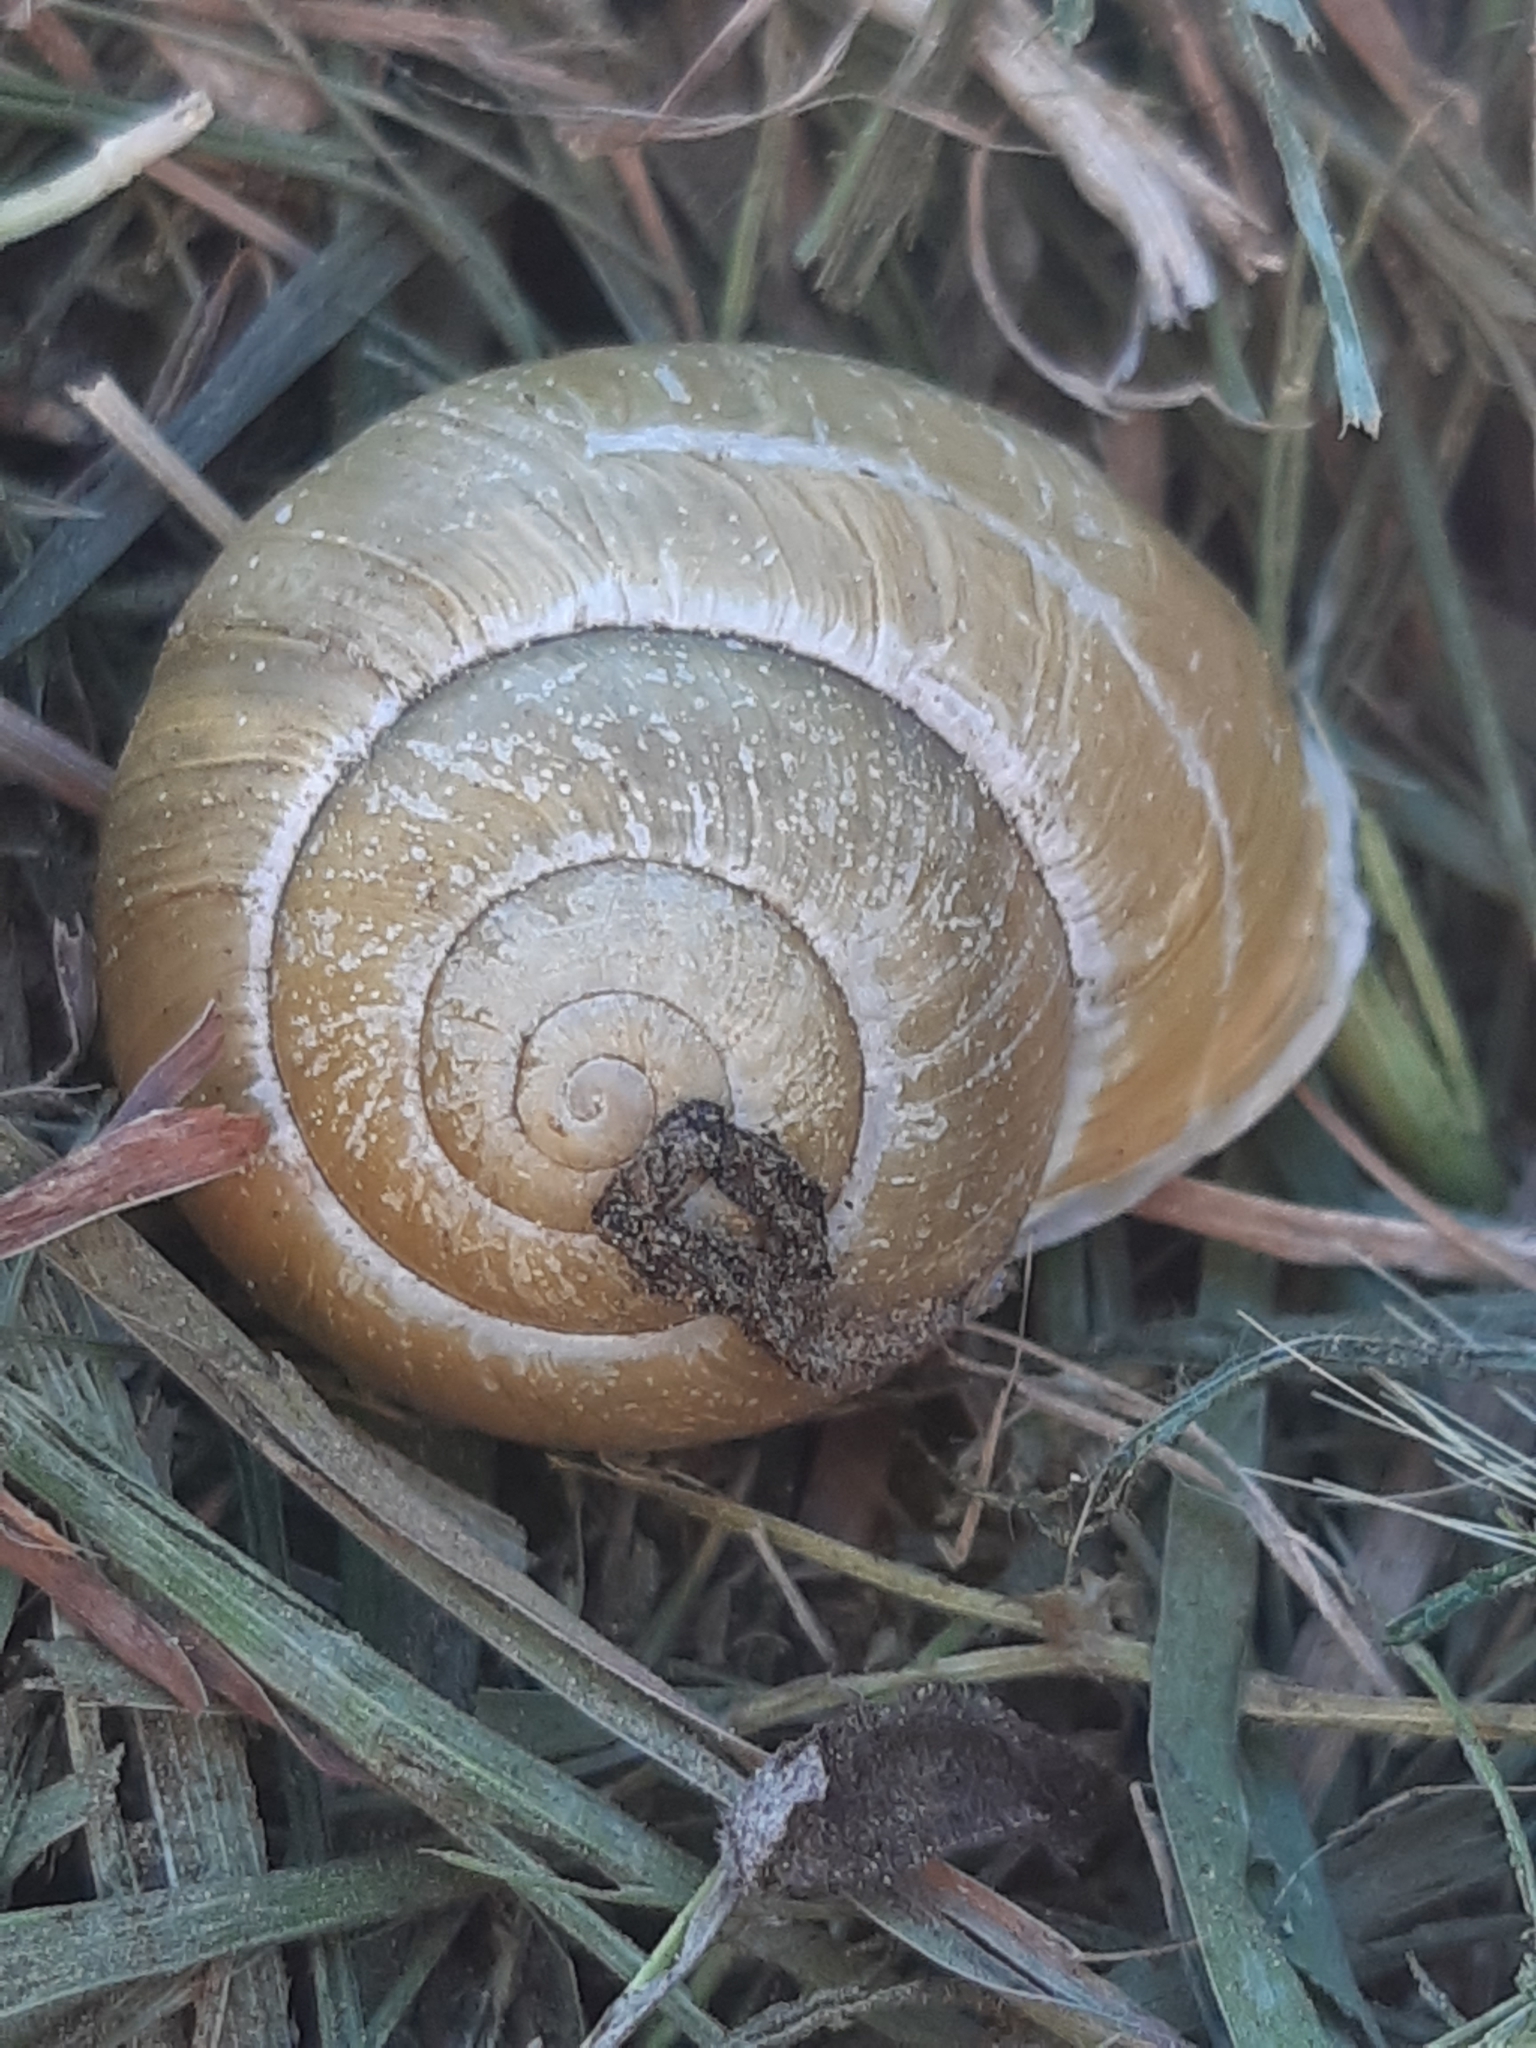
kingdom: Animalia
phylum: Mollusca
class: Gastropoda
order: Stylommatophora
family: Helicidae
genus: Cepaea
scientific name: Cepaea hortensis
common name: White-lip gardensnail
